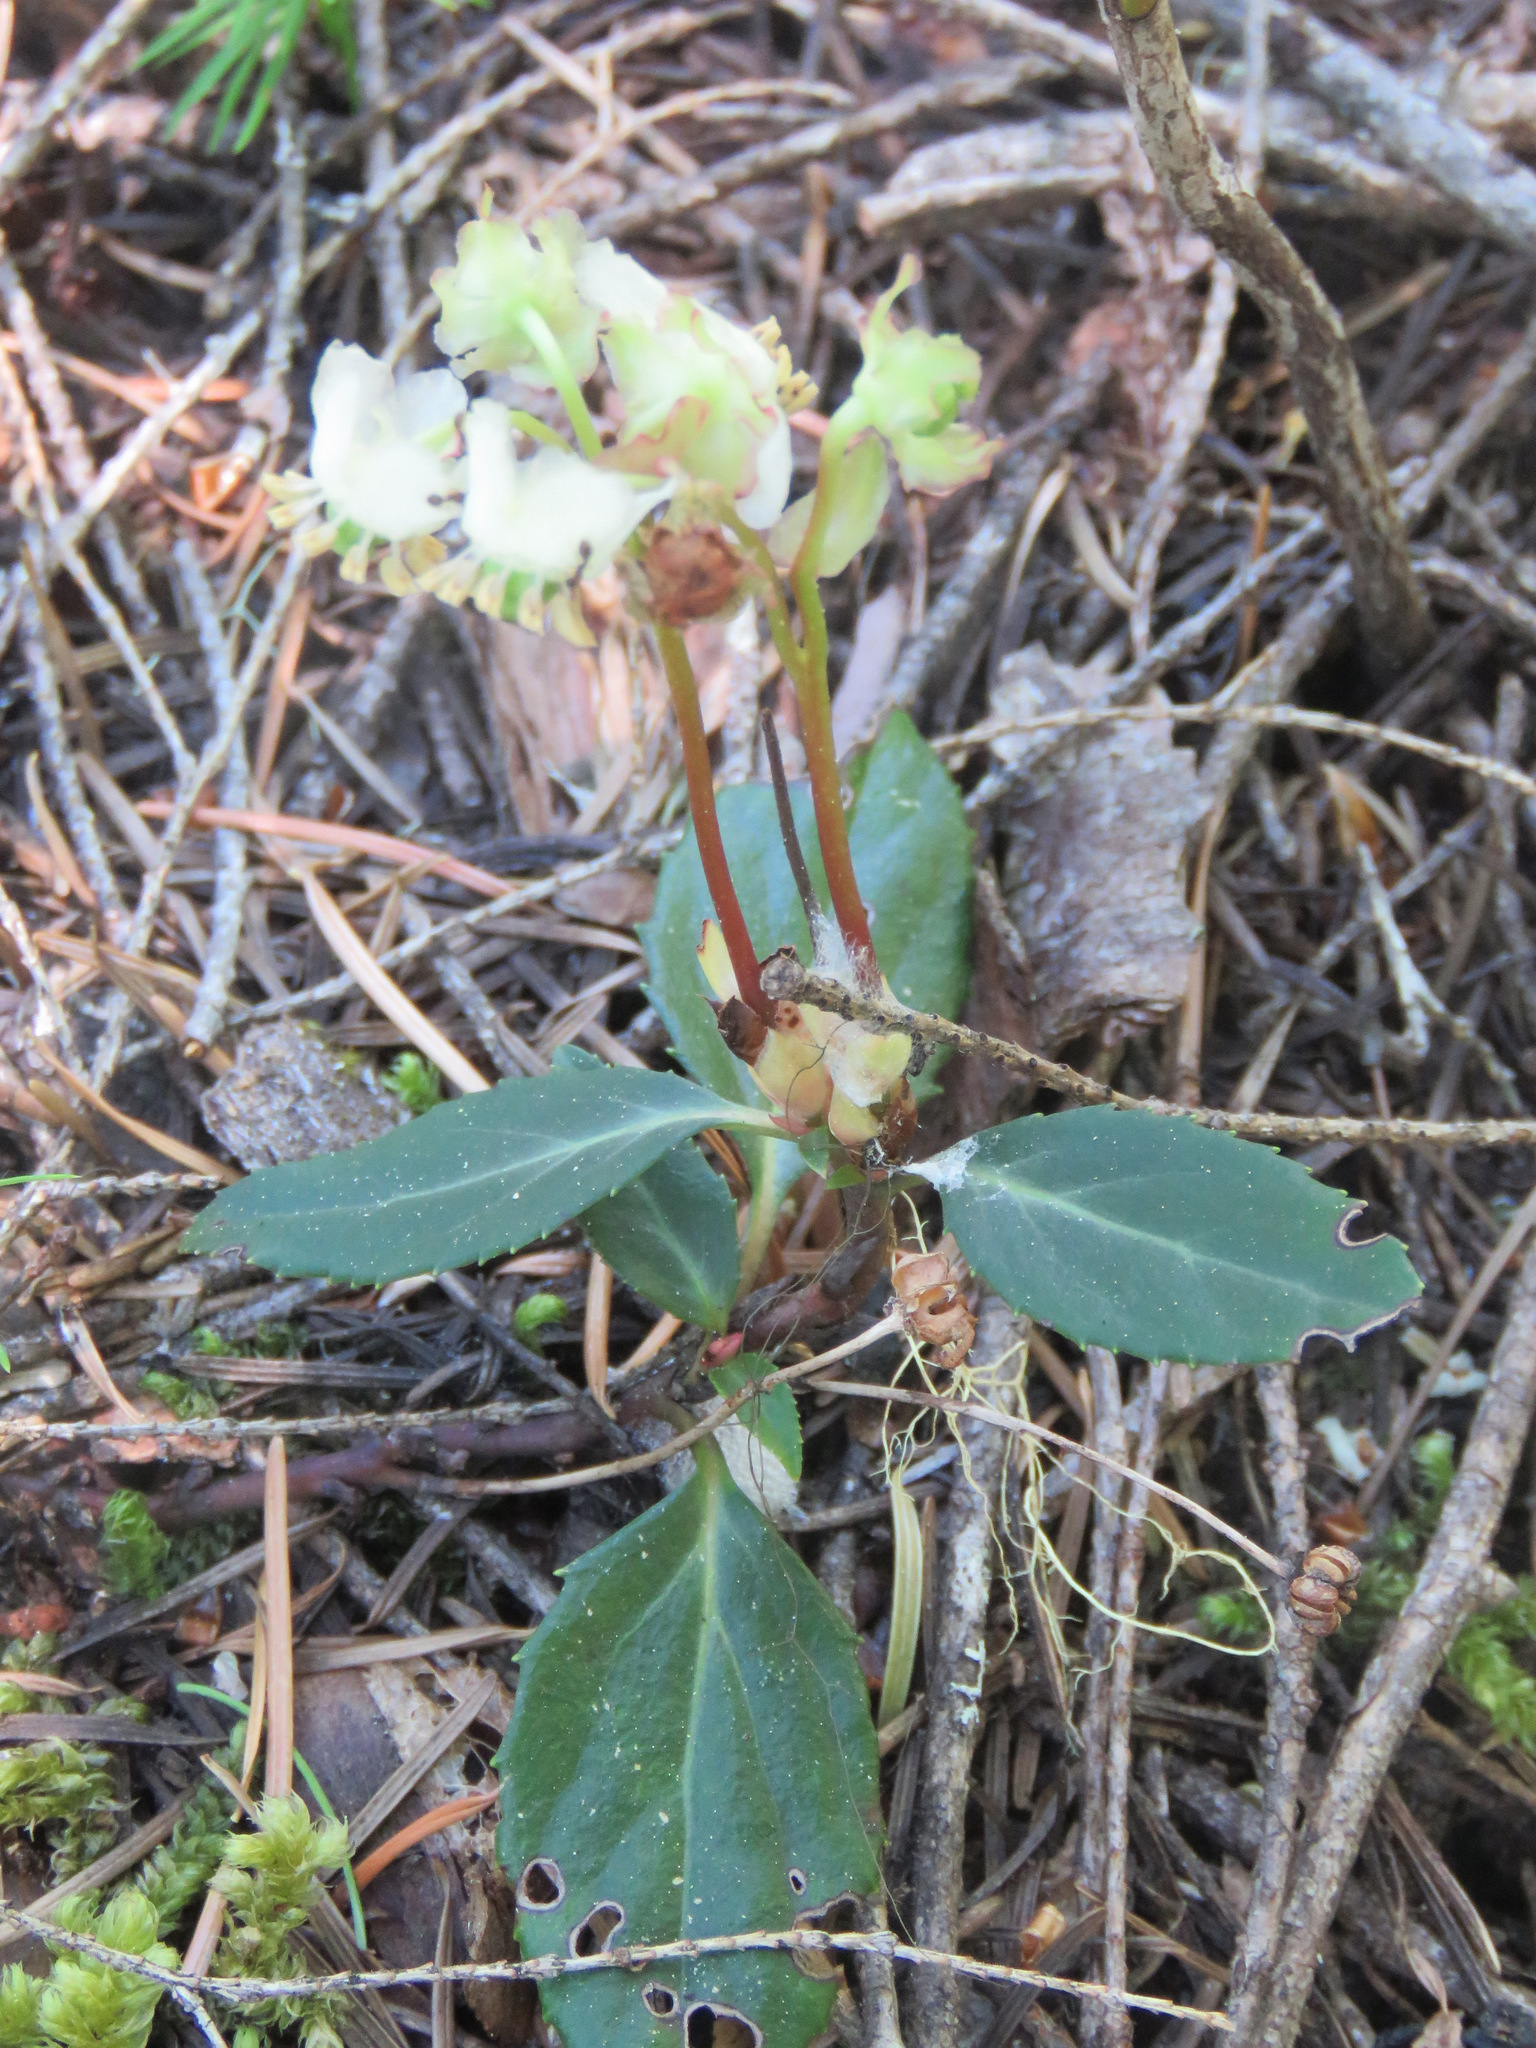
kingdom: Plantae
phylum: Tracheophyta
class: Magnoliopsida
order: Ericales
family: Ericaceae
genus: Chimaphila
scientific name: Chimaphila menziesii
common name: Menzies' pipsissewa
